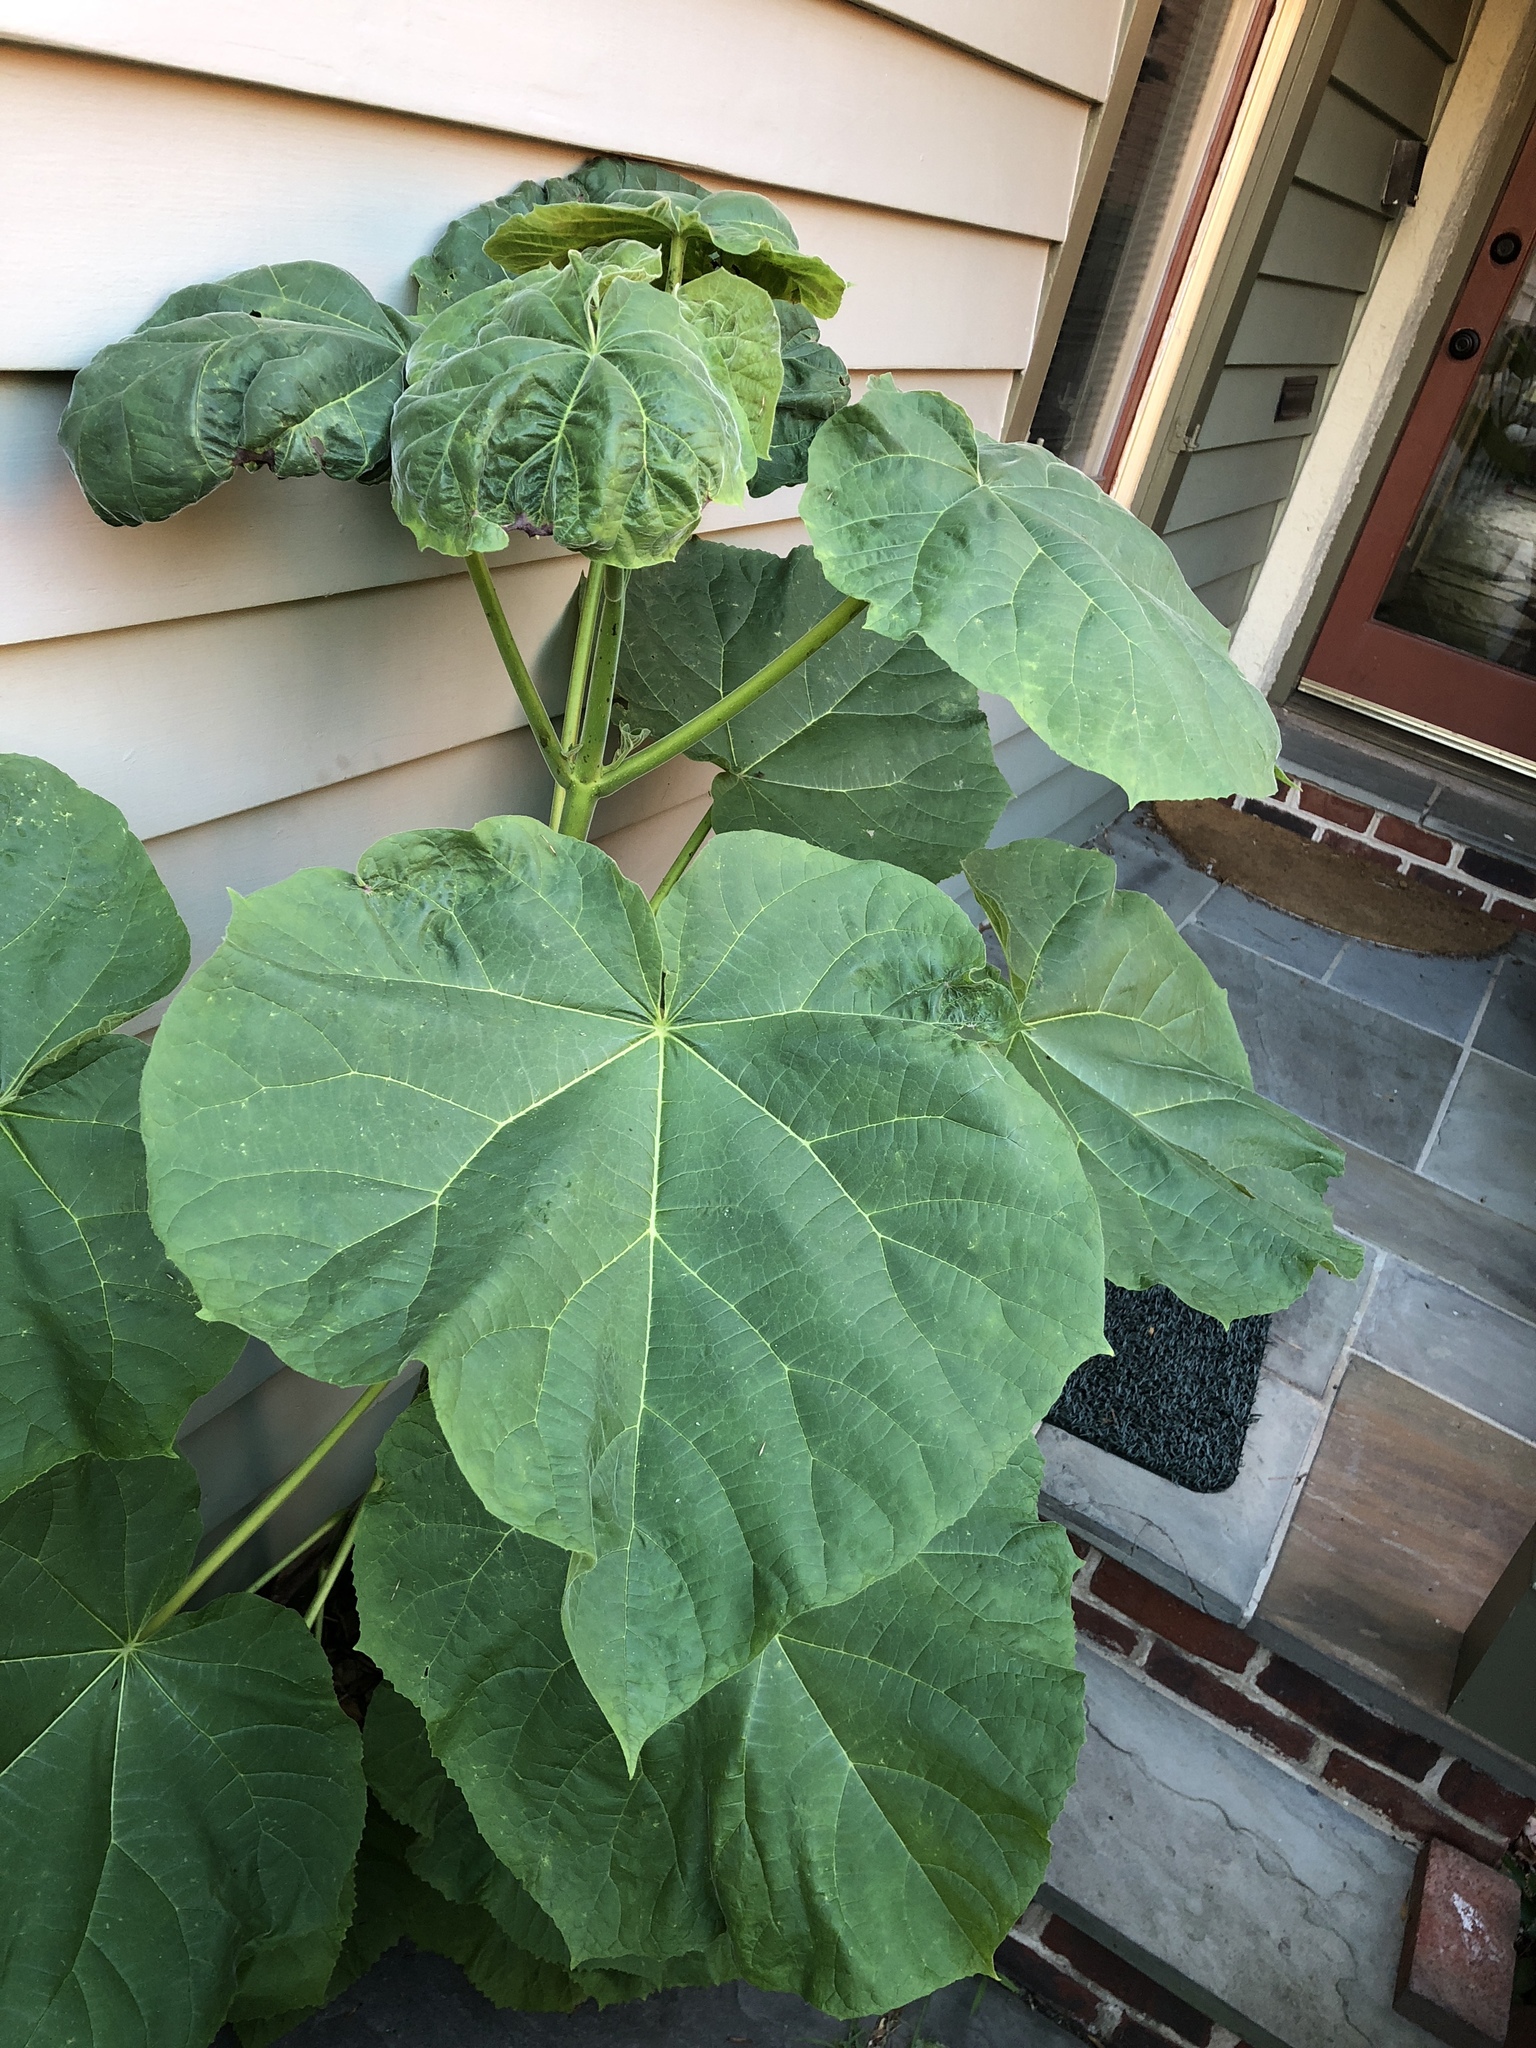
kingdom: Plantae
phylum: Tracheophyta
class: Magnoliopsida
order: Lamiales
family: Paulowniaceae
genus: Paulownia
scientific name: Paulownia tomentosa
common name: Foxglove-tree
